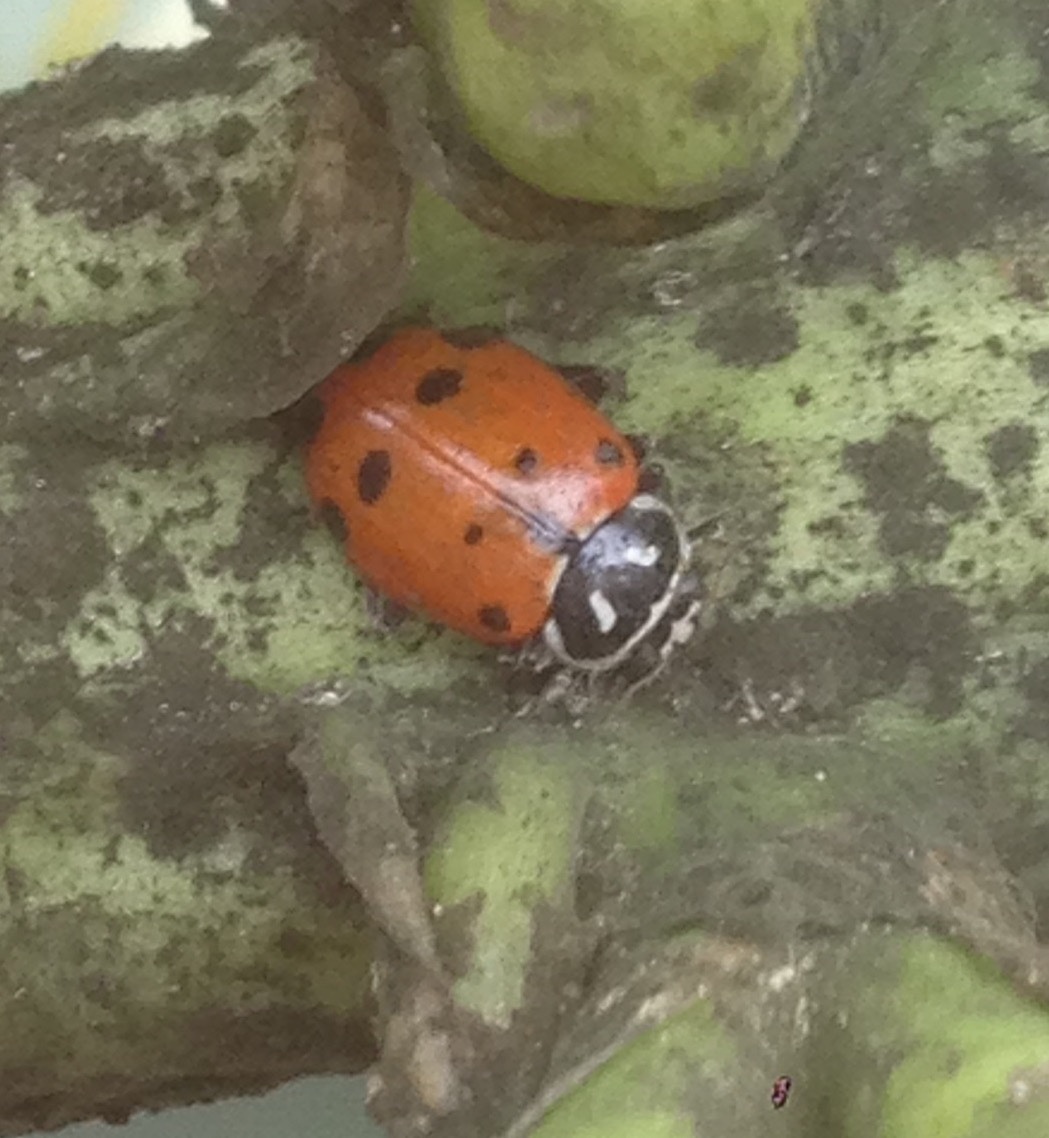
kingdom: Animalia
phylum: Arthropoda
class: Insecta
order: Coleoptera
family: Coccinellidae
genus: Hippodamia
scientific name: Hippodamia convergens
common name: Convergent lady beetle
